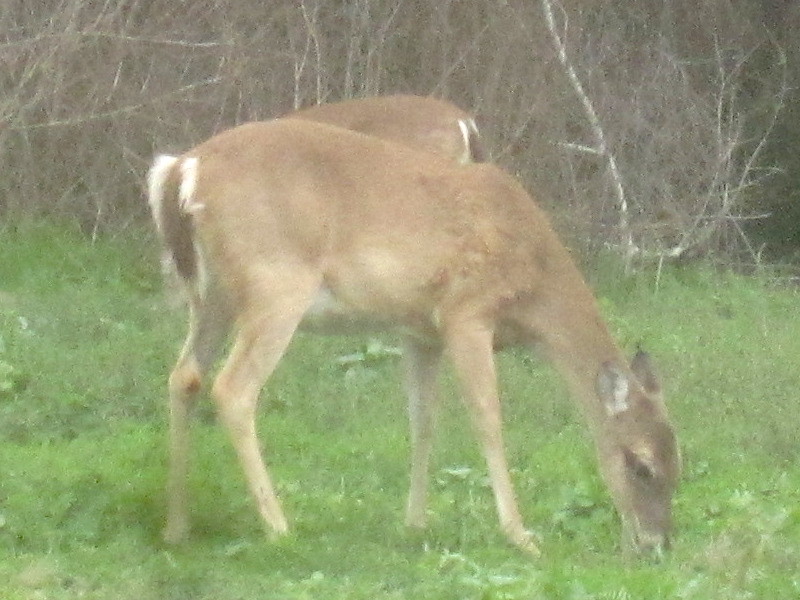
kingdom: Animalia
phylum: Chordata
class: Mammalia
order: Artiodactyla
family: Cervidae
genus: Odocoileus
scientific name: Odocoileus virginianus
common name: White-tailed deer
